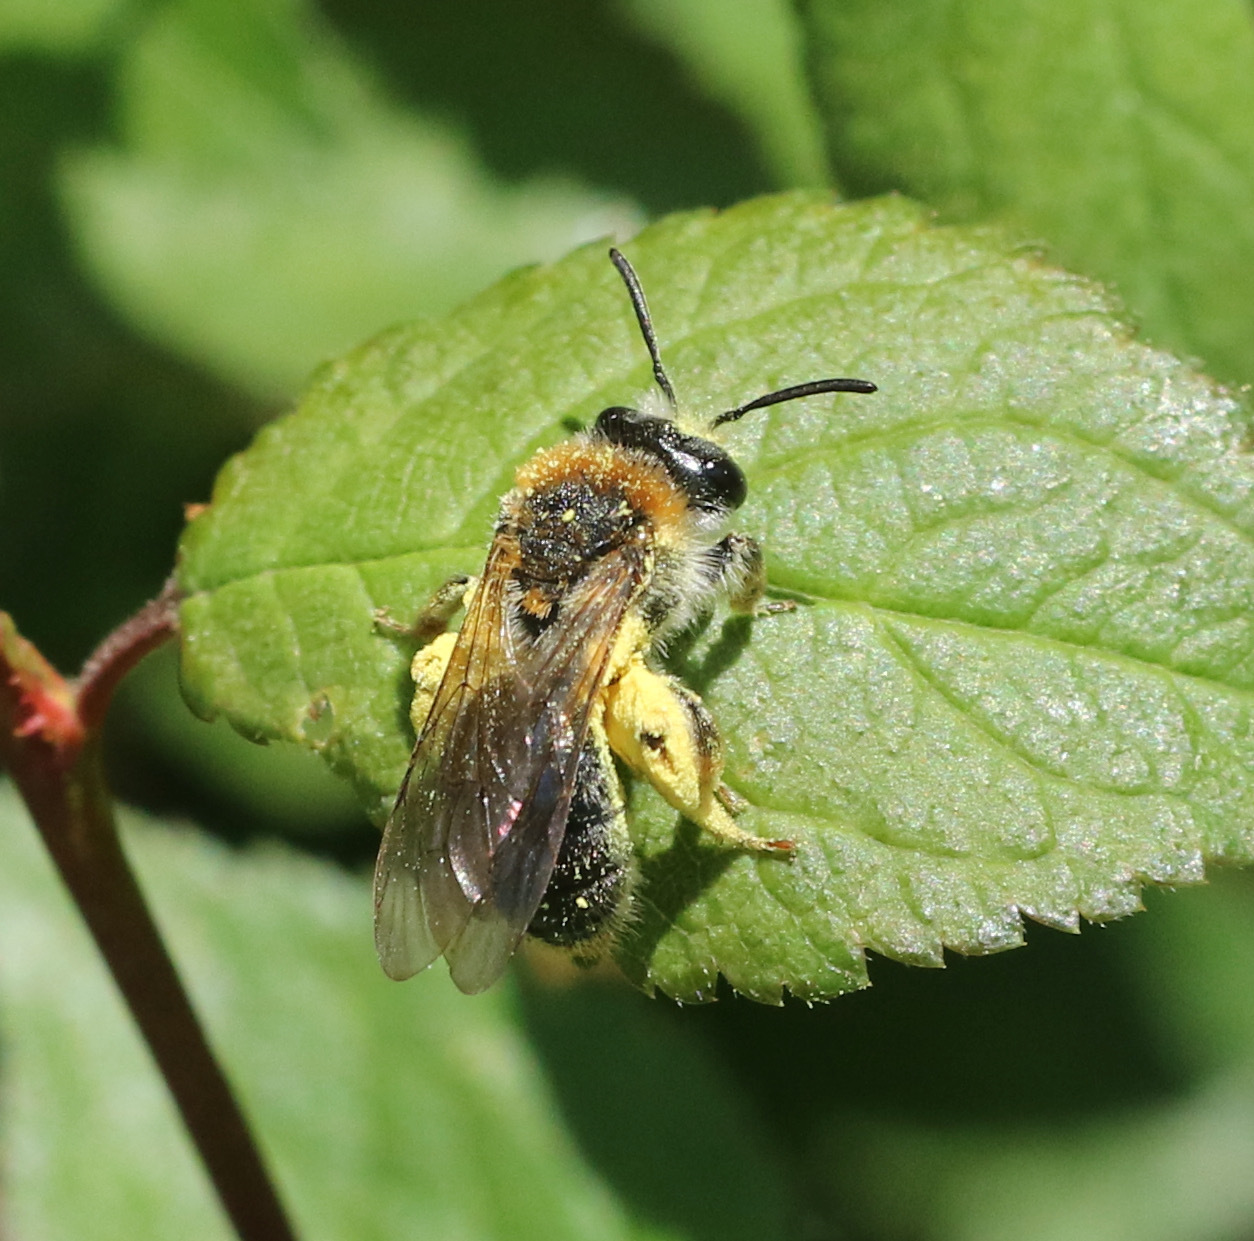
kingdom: Animalia
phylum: Arthropoda
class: Insecta
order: Hymenoptera
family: Andrenidae
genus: Andrena
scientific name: Andrena haemorrhoa
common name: Early mining bee
